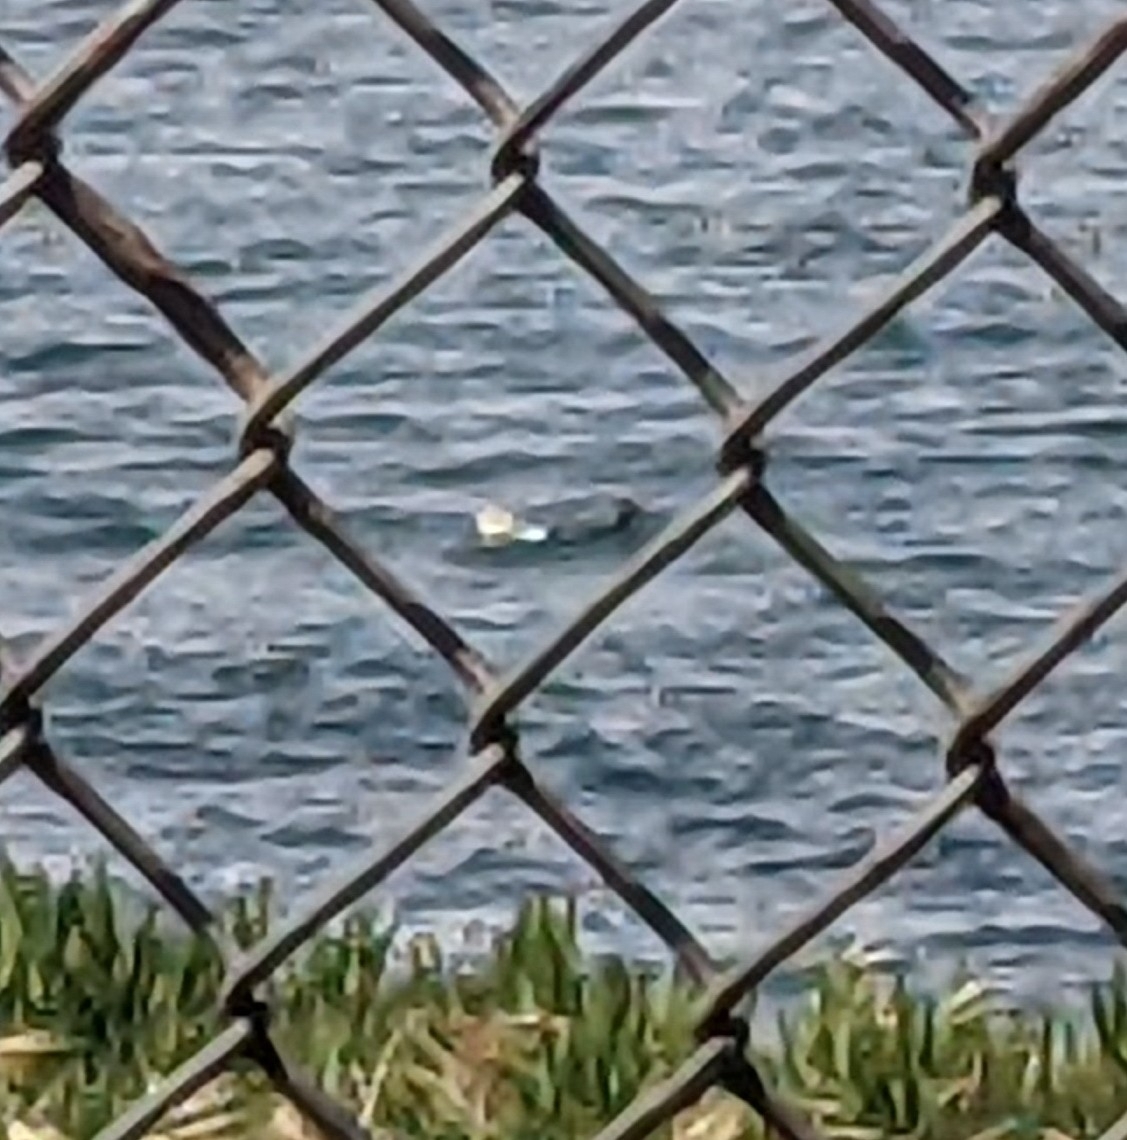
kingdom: Animalia
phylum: Chordata
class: Mammalia
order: Carnivora
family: Mustelidae
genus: Enhydra
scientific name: Enhydra lutris
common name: Sea otter
